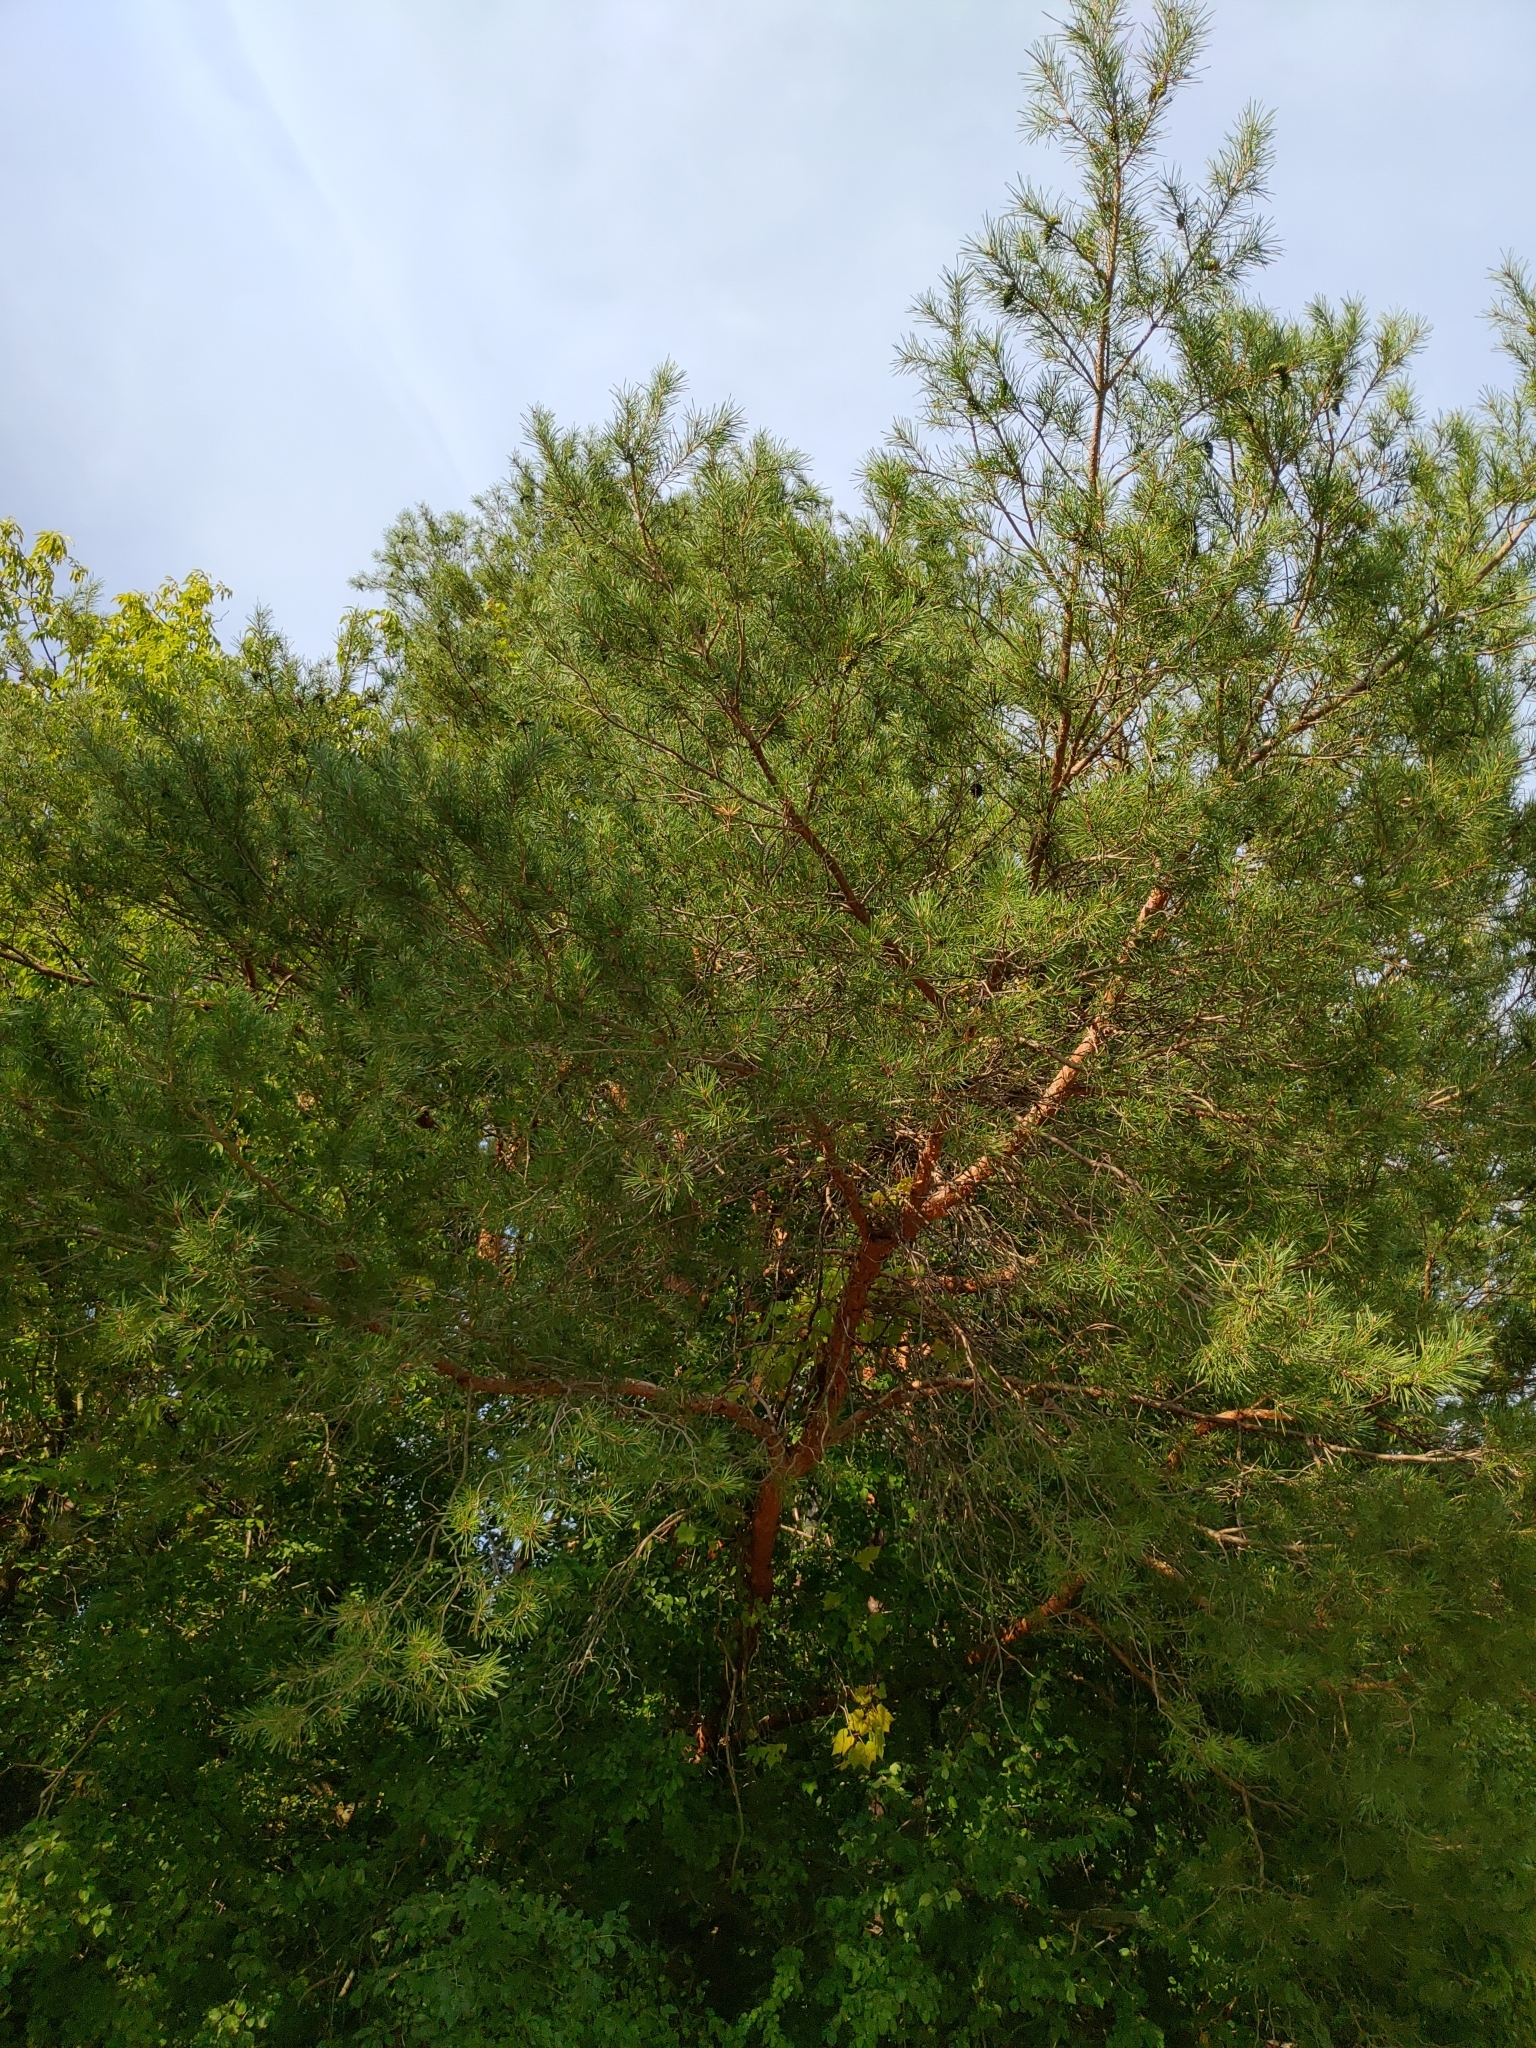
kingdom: Plantae
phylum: Tracheophyta
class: Pinopsida
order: Pinales
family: Pinaceae
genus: Pinus
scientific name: Pinus sylvestris
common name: Scots pine
